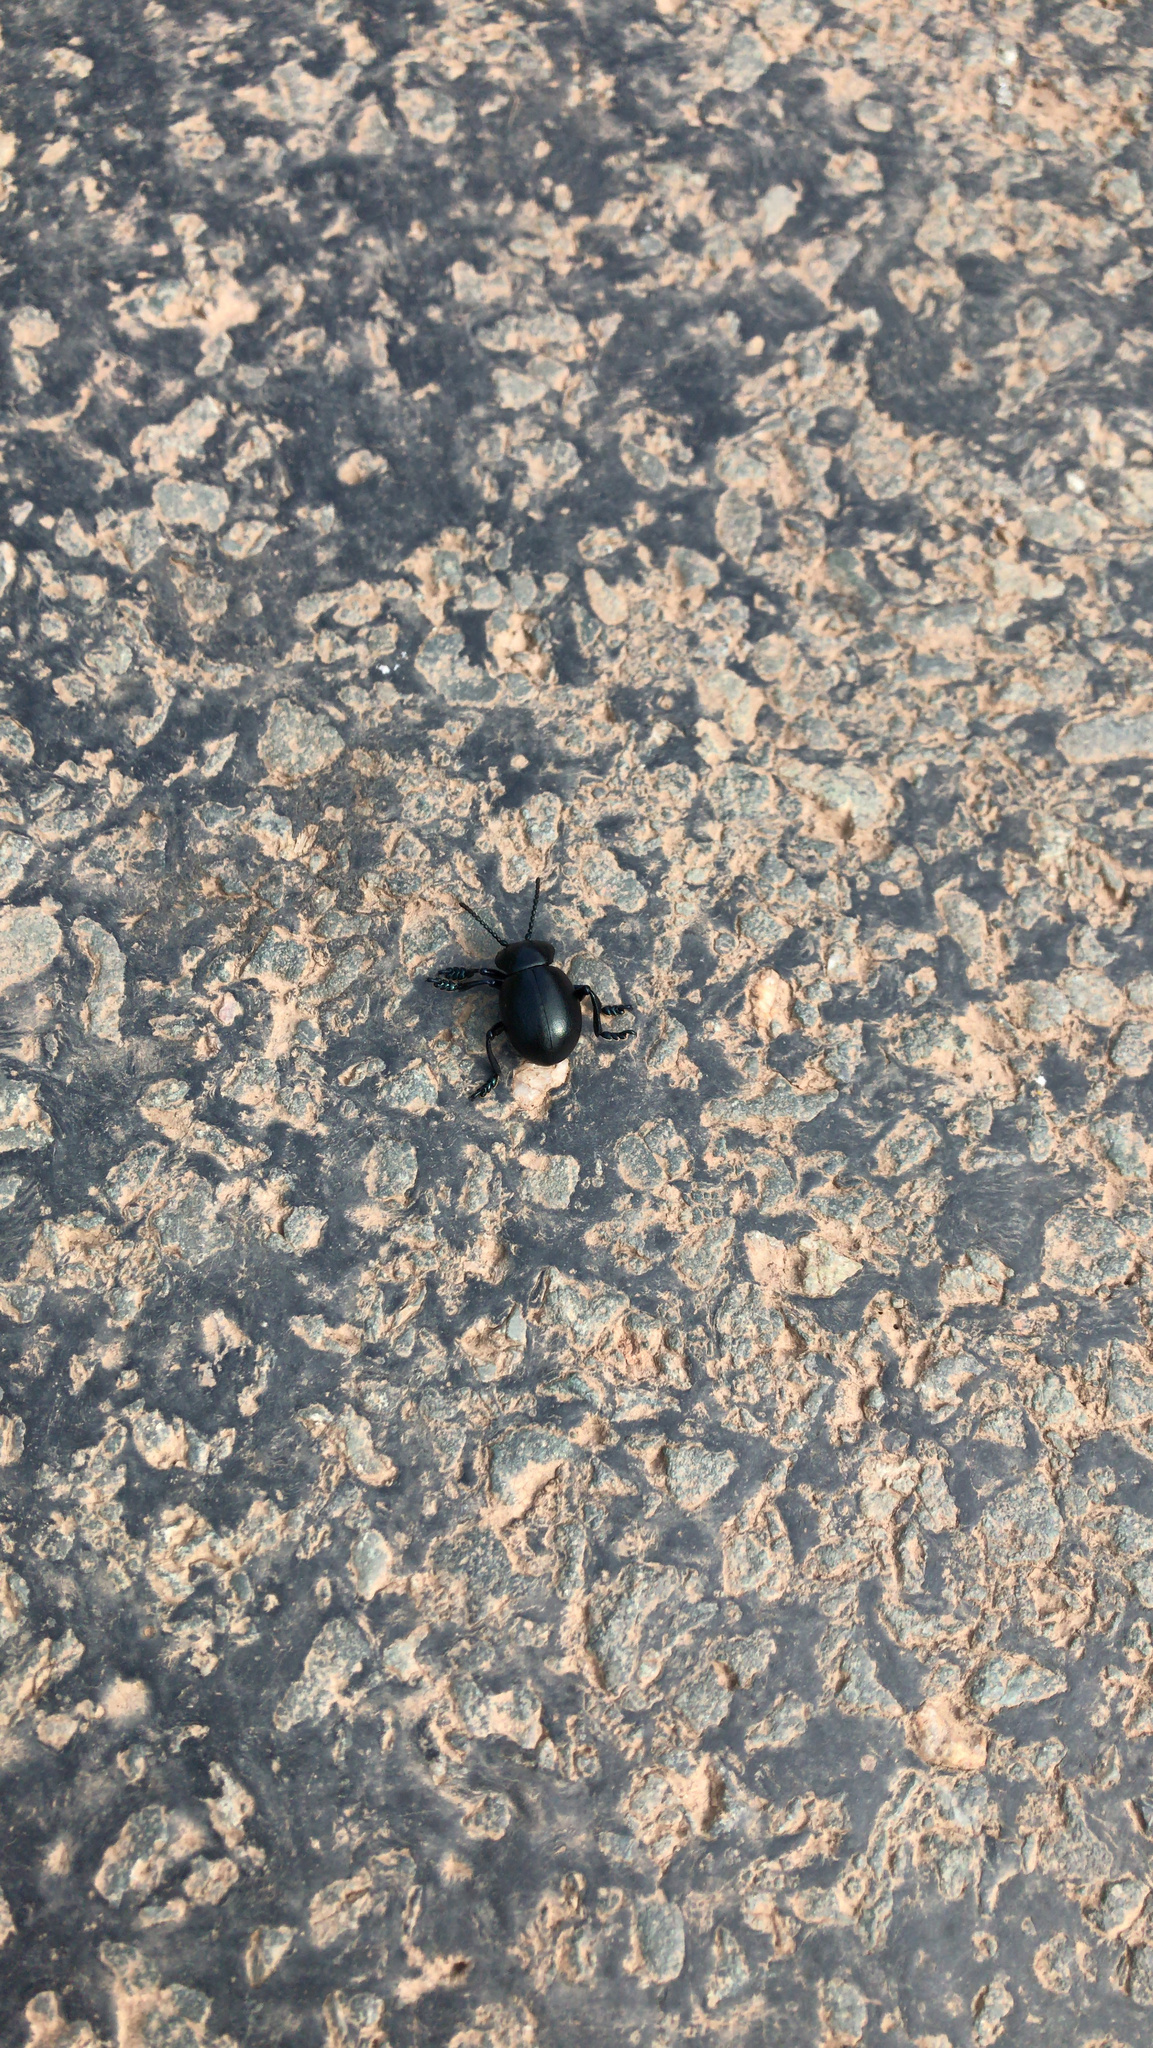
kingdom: Plantae
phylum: Tracheophyta
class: Magnoliopsida
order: Apiales
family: Apiaceae
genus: Anthriscus
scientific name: Anthriscus sylvestris
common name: Cow parsley
